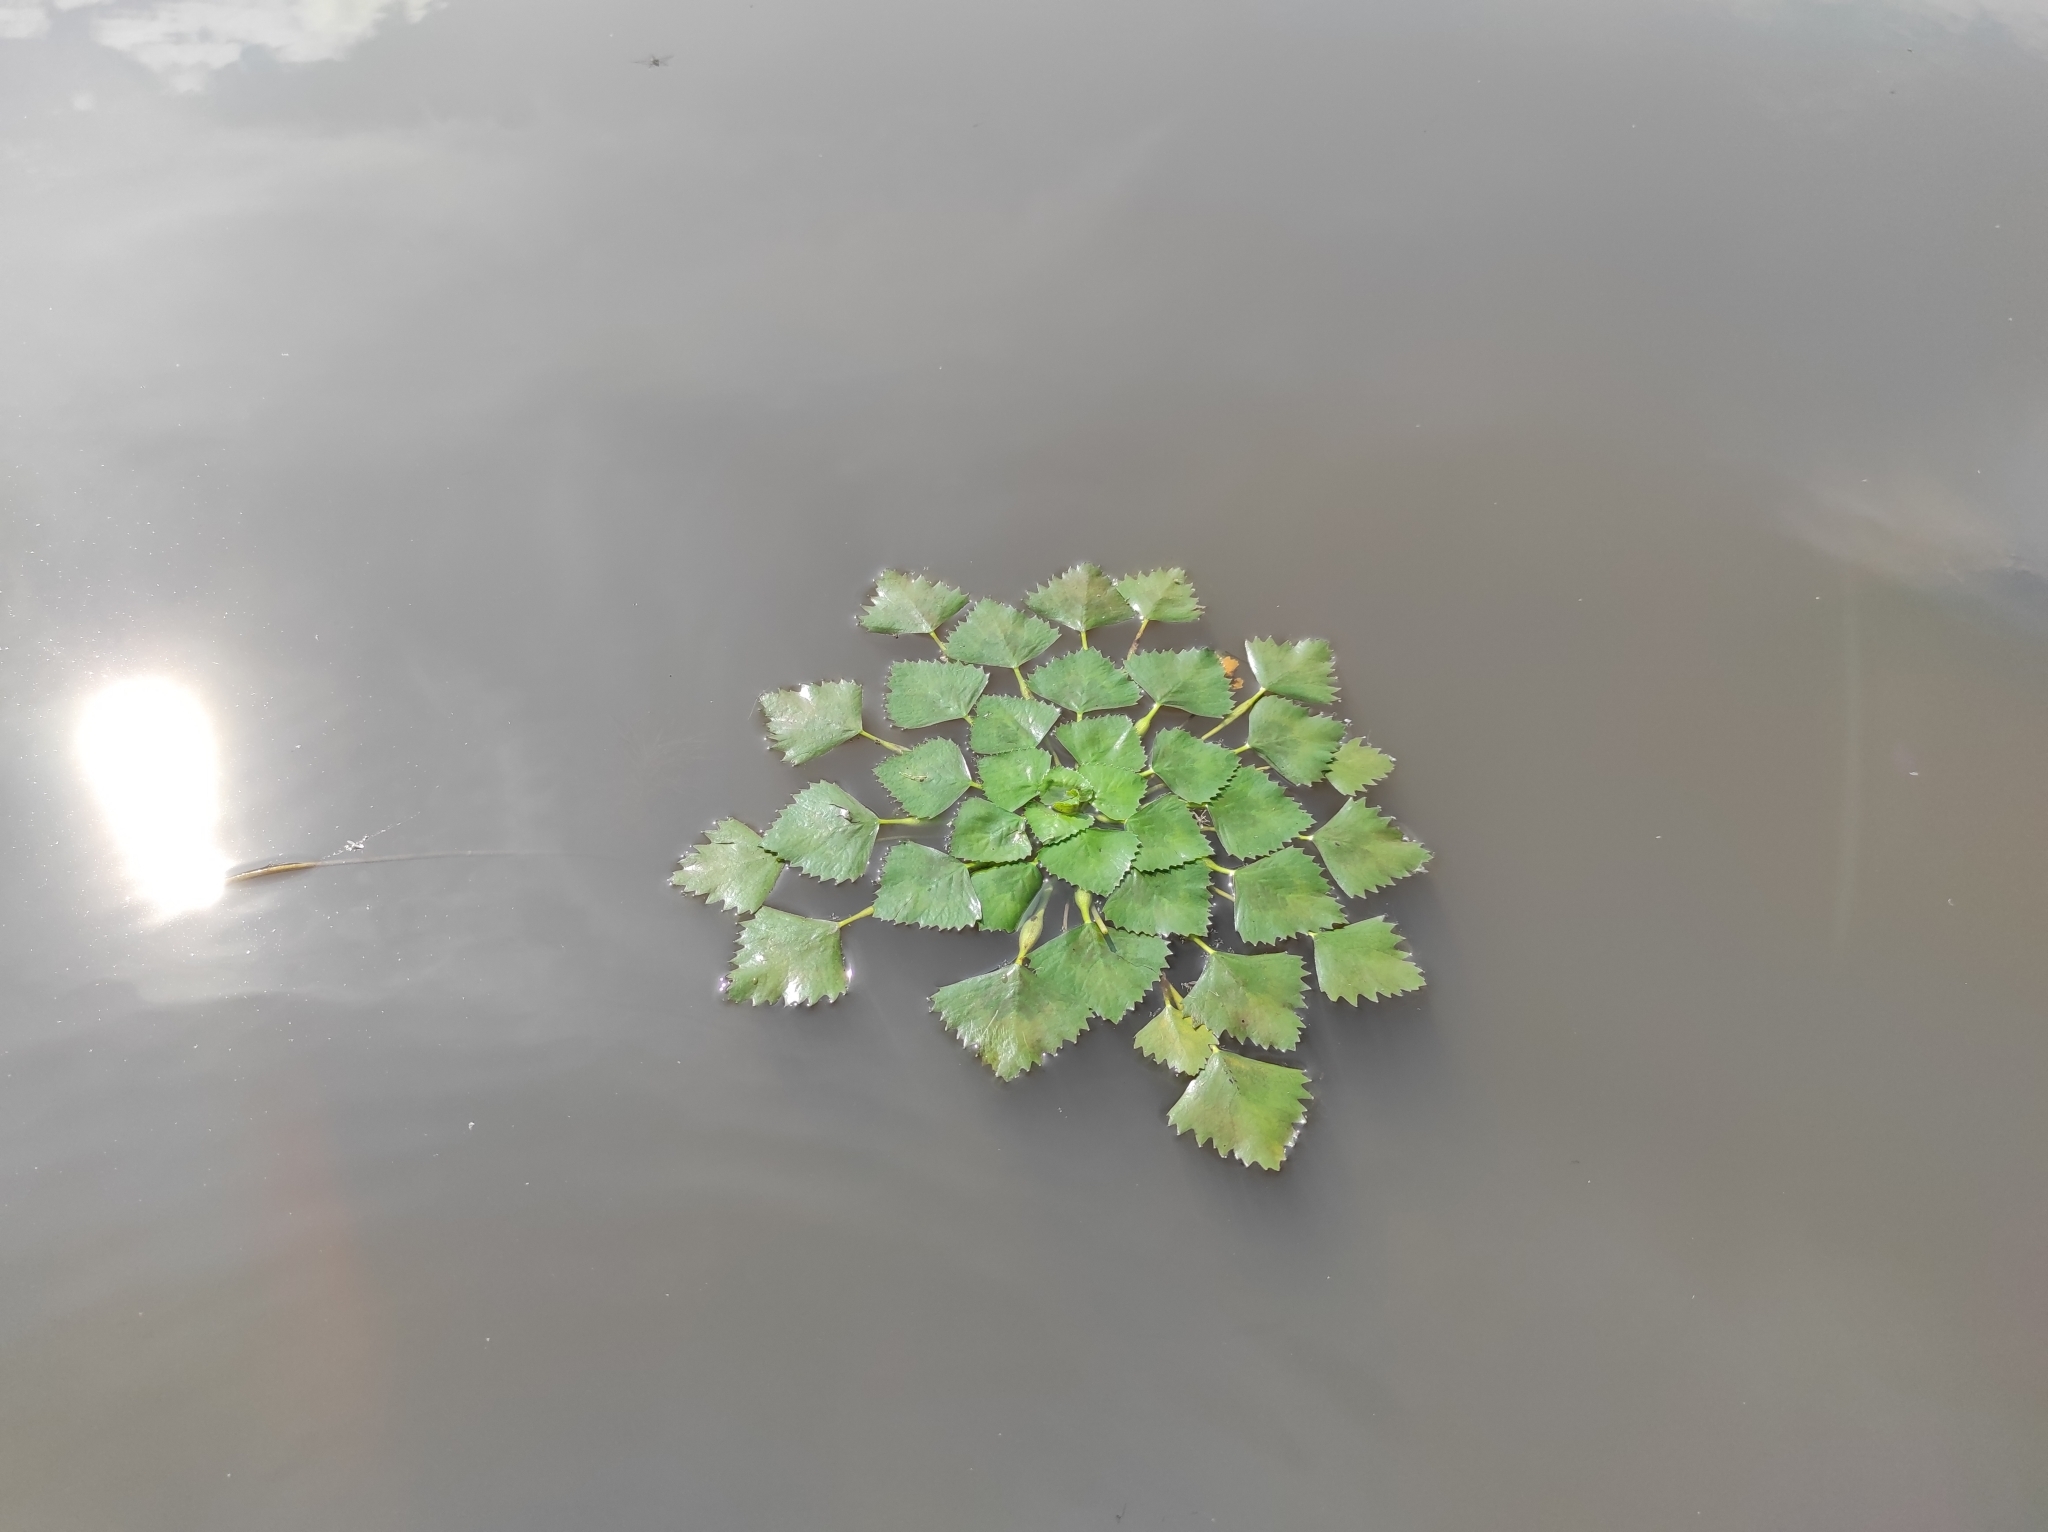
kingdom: Plantae
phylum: Tracheophyta
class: Magnoliopsida
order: Myrtales
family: Lythraceae
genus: Trapa
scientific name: Trapa natans
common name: Water chestnut
